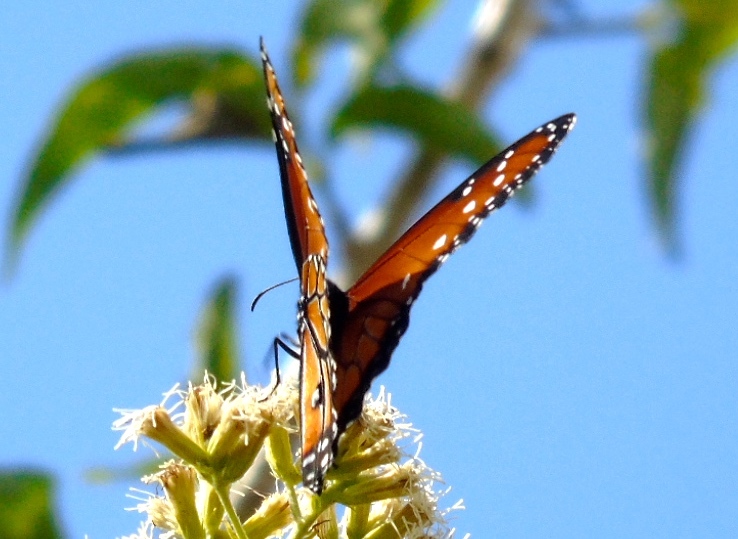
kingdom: Animalia
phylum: Arthropoda
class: Insecta
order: Lepidoptera
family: Nymphalidae
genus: Danaus
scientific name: Danaus gilippus
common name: Queen
